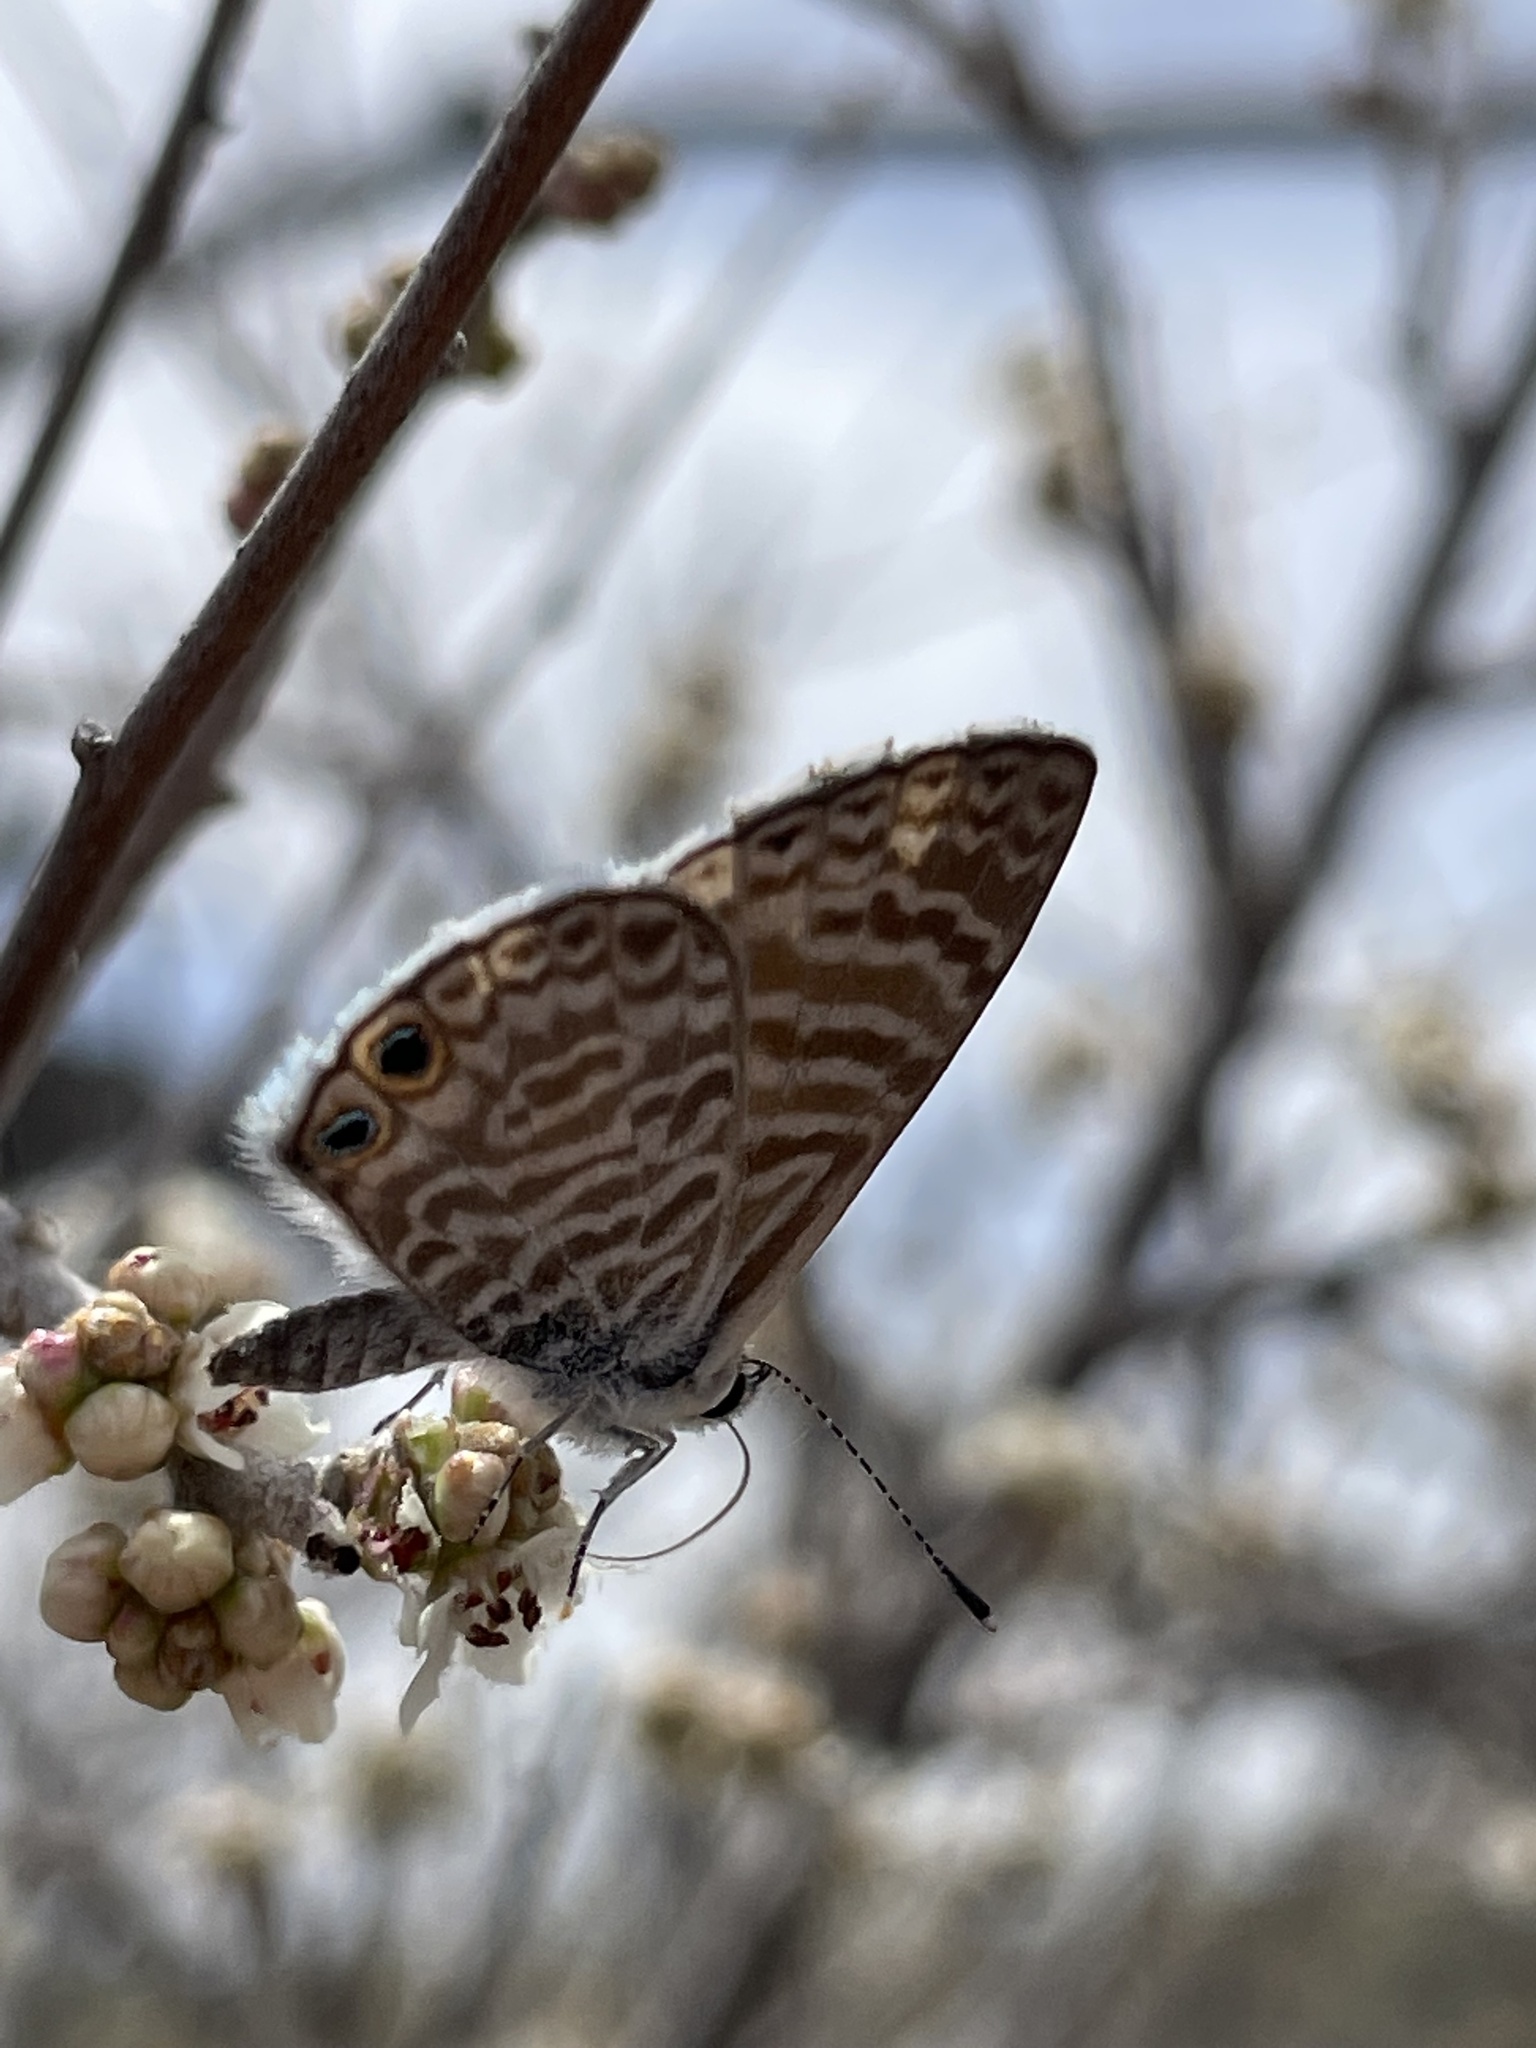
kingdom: Animalia
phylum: Arthropoda
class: Insecta
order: Lepidoptera
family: Lycaenidae
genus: Leptotes
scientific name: Leptotes marina
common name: Marine blue
